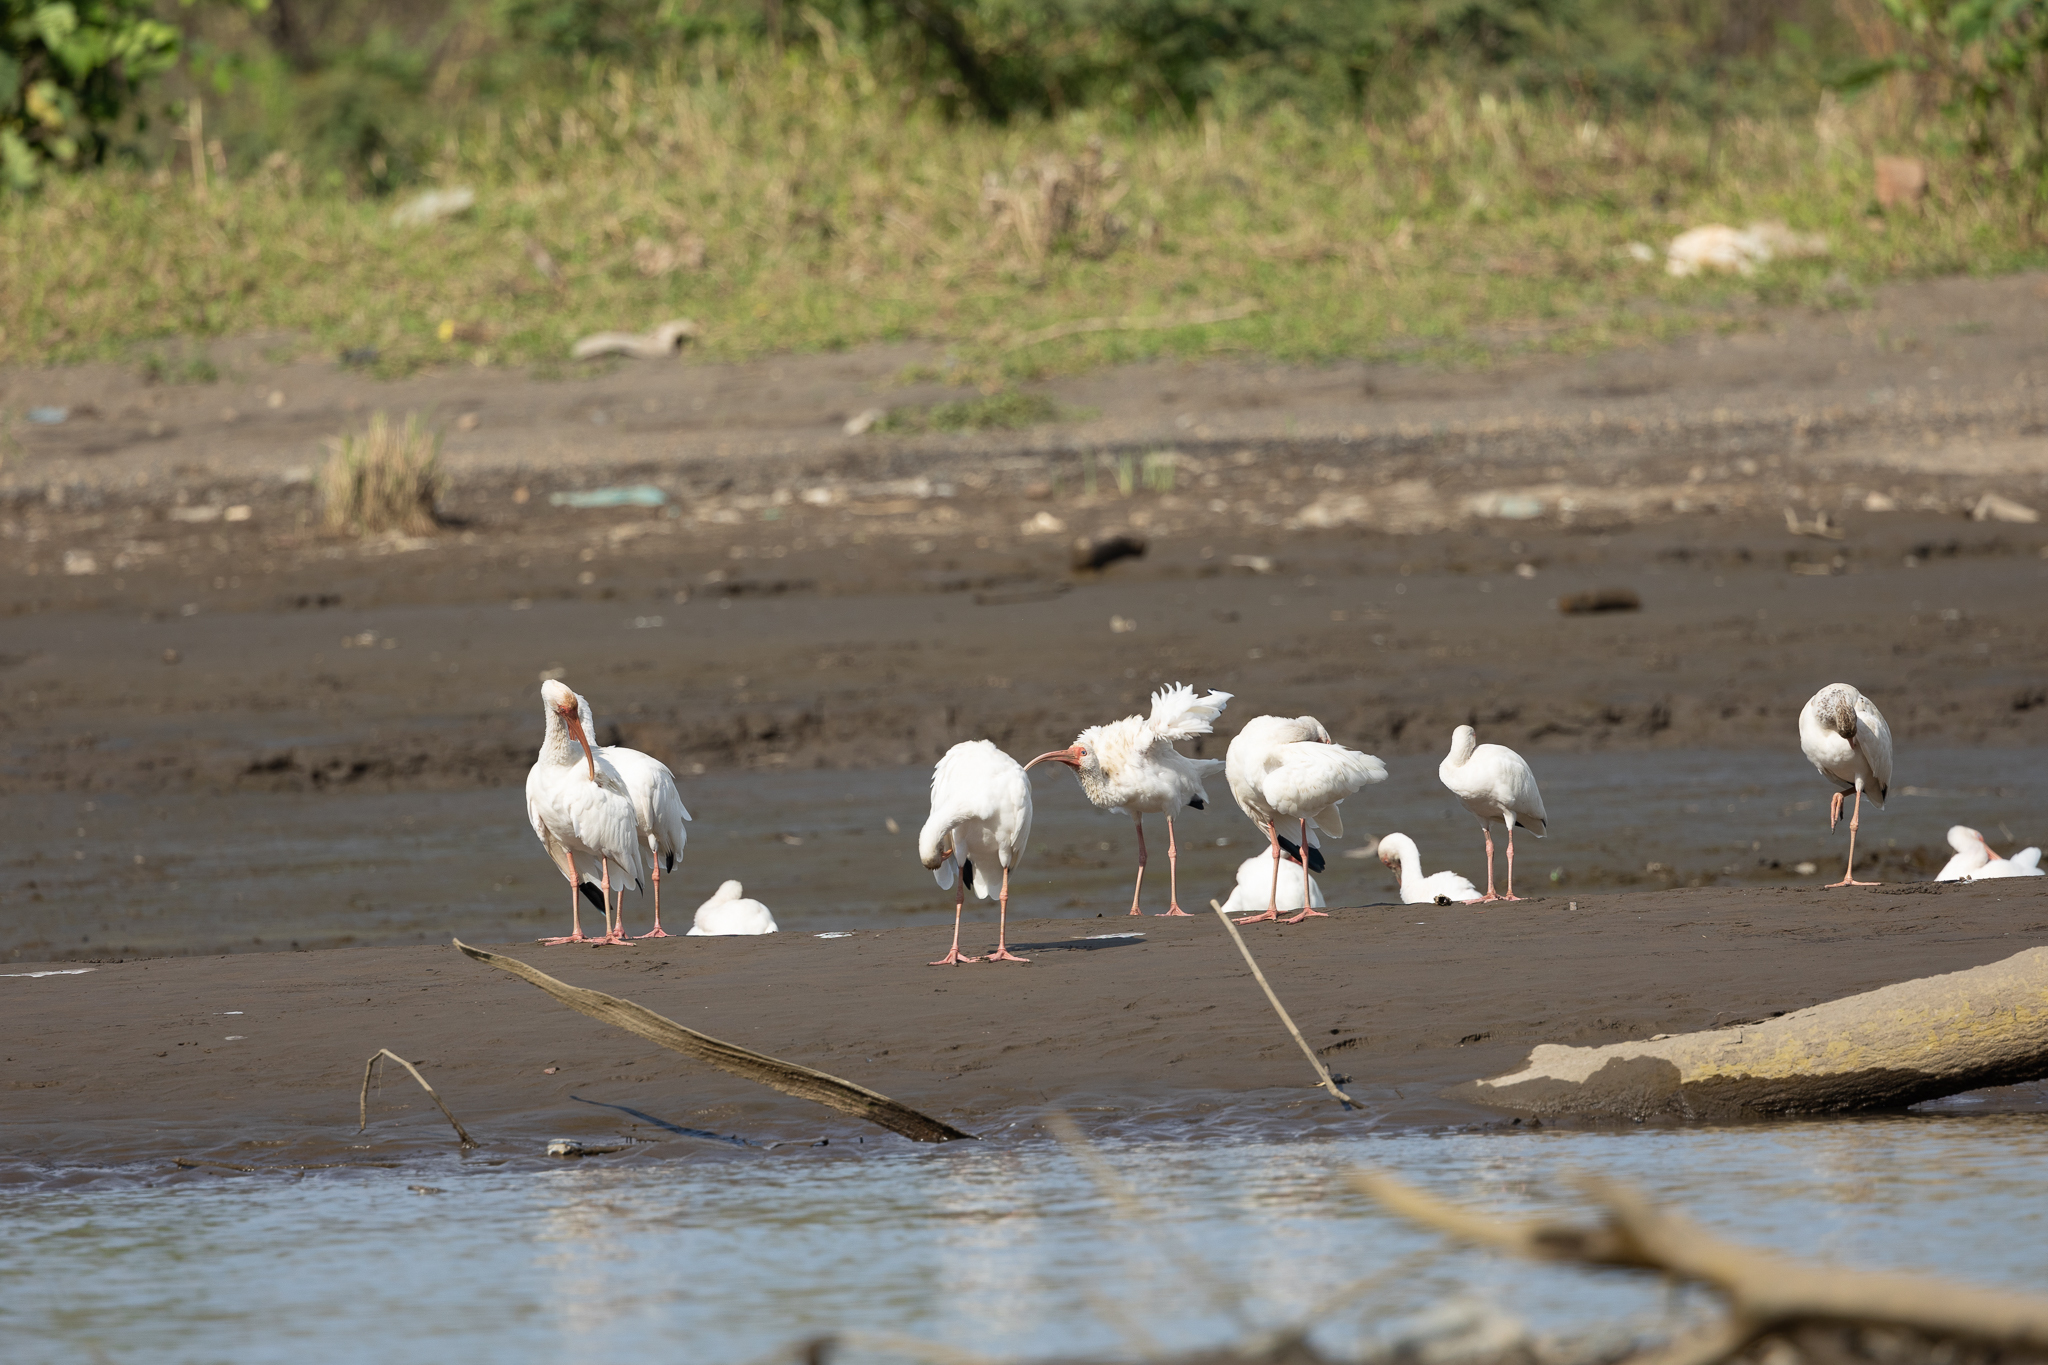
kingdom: Animalia
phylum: Chordata
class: Aves
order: Pelecaniformes
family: Threskiornithidae
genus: Eudocimus
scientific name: Eudocimus albus
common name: White ibis
